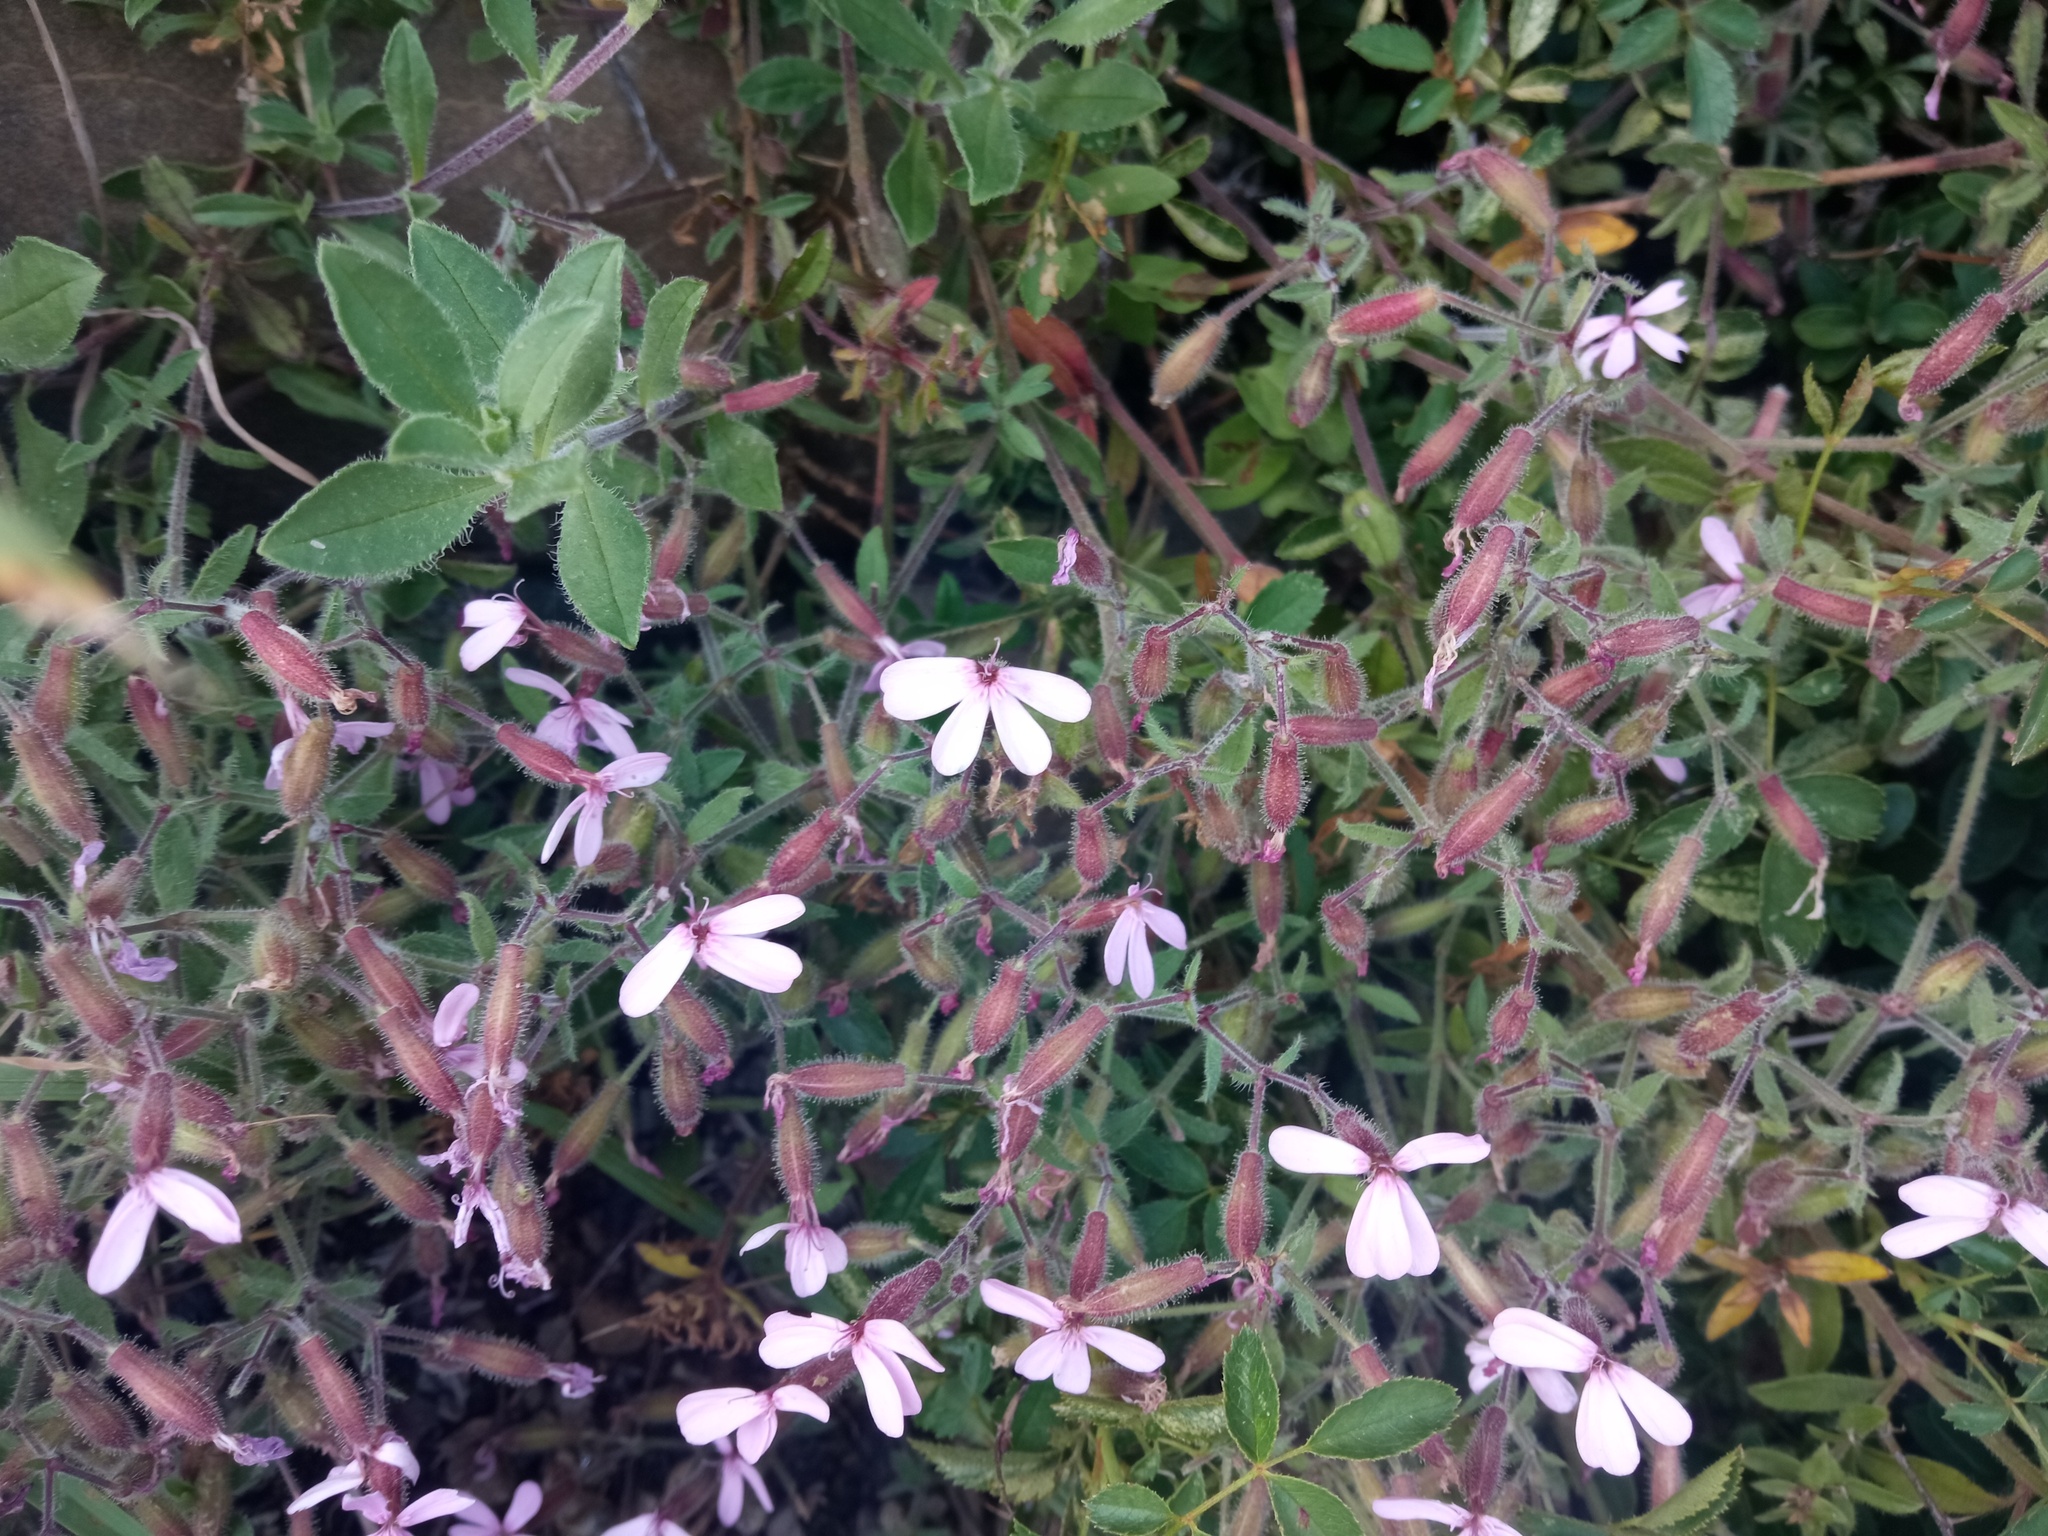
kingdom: Plantae
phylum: Tracheophyta
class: Magnoliopsida
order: Caryophyllales
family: Caryophyllaceae
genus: Saponaria
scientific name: Saponaria ocymoides
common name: Rock soapwort
